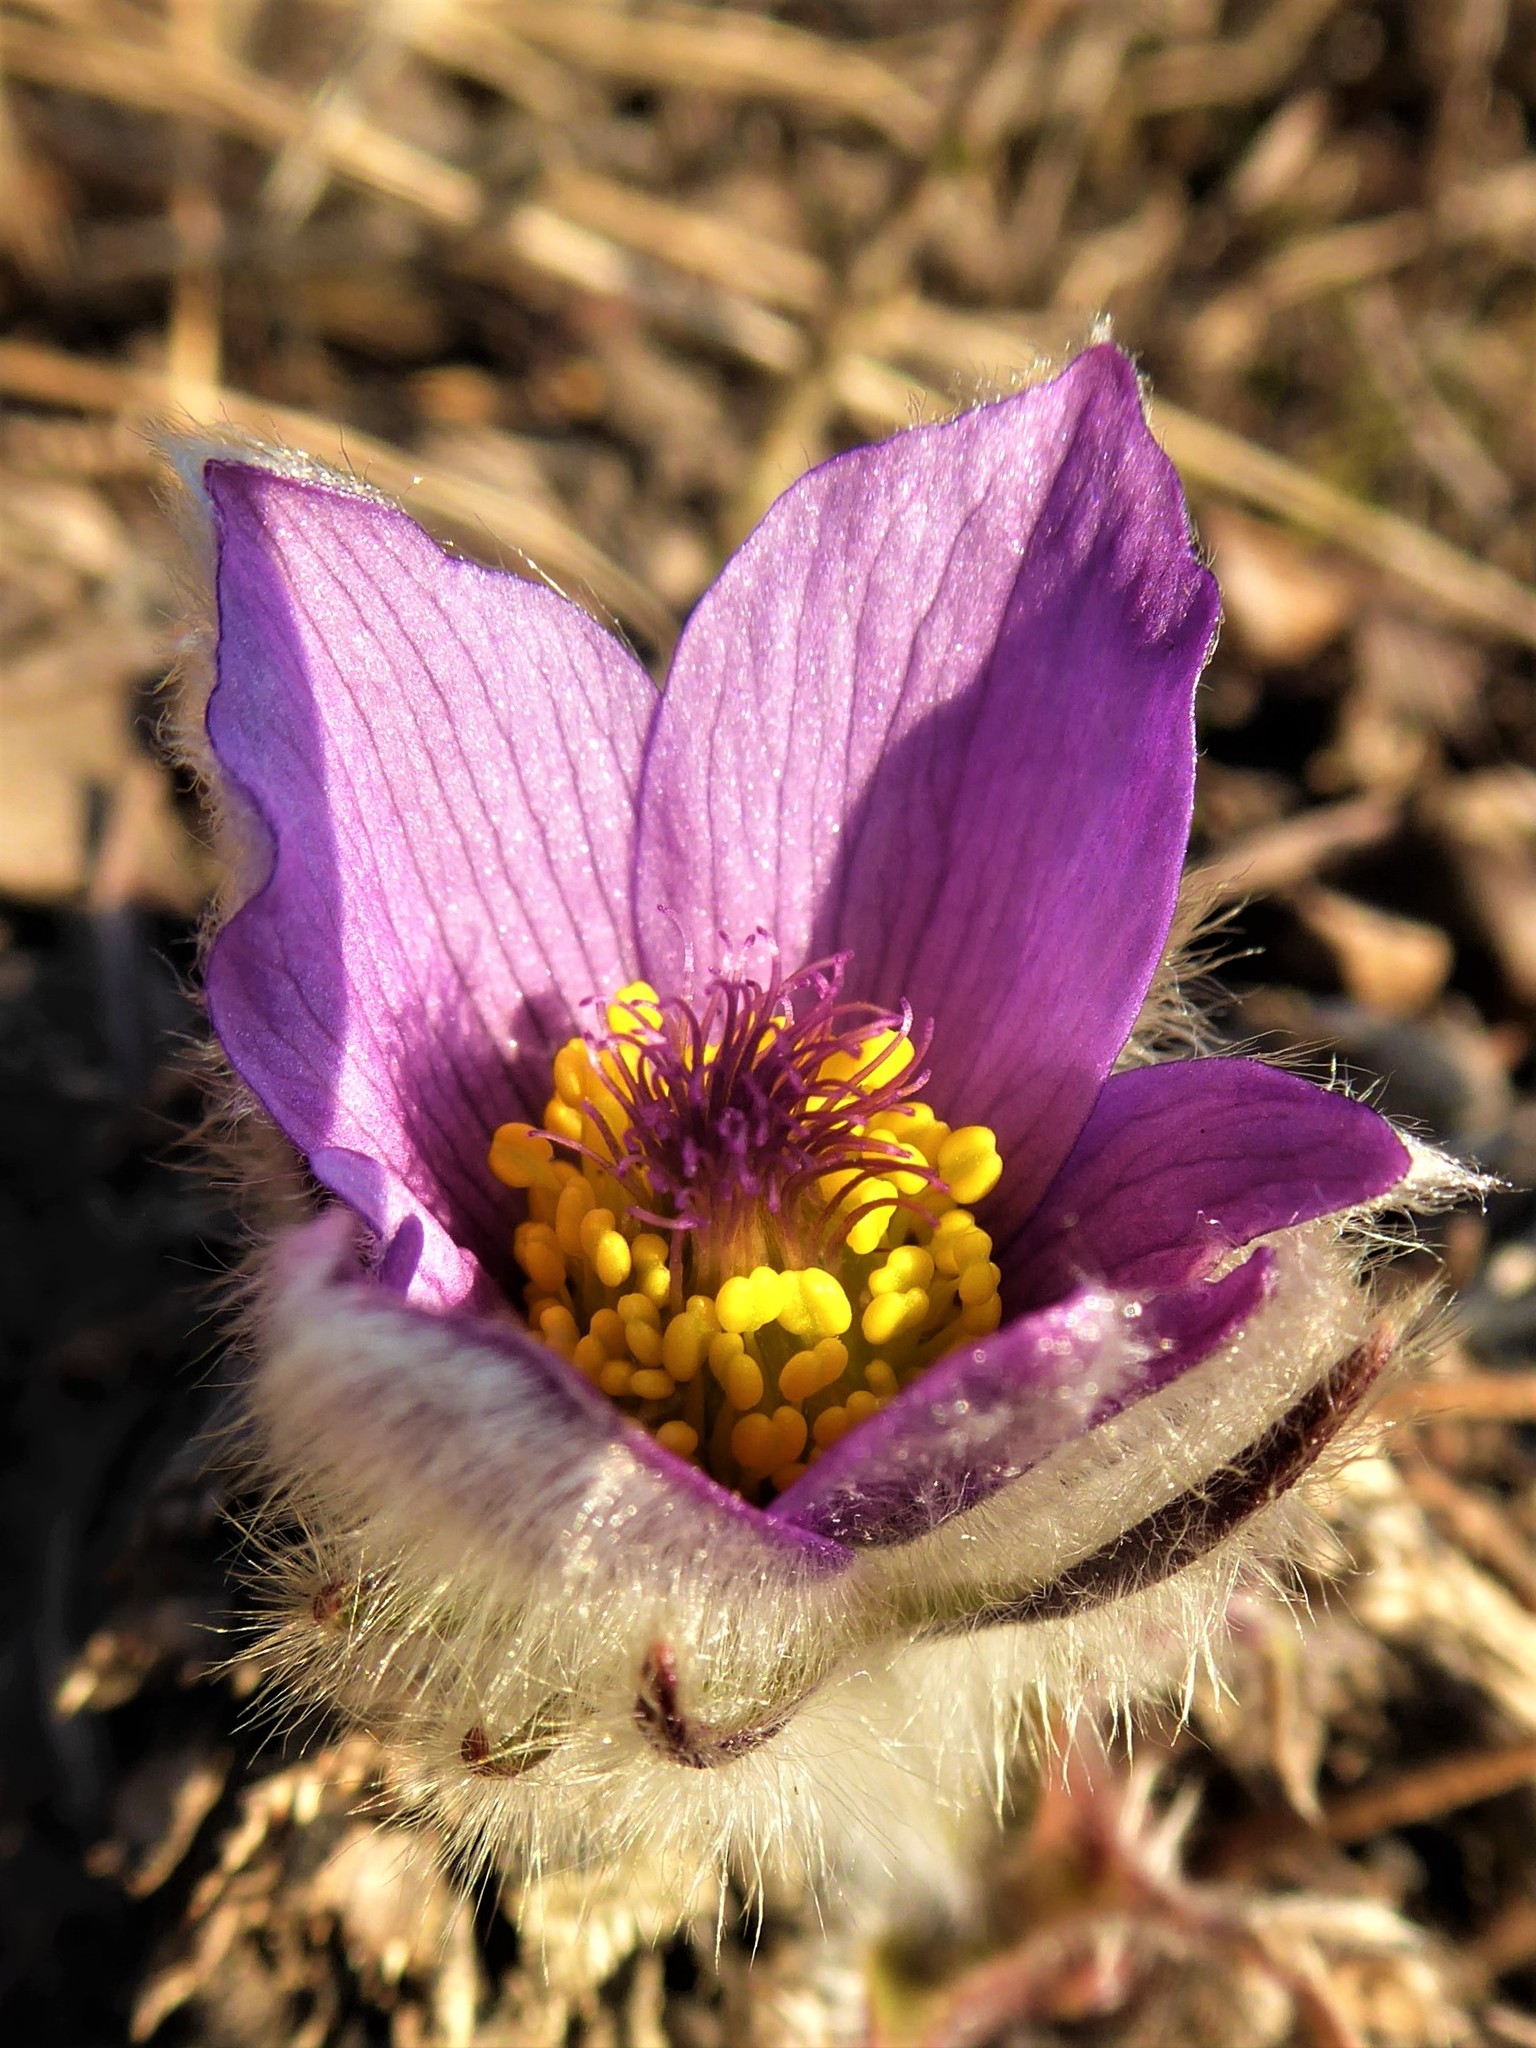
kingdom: Plantae
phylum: Tracheophyta
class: Magnoliopsida
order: Ranunculales
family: Ranunculaceae
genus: Pulsatilla
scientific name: Pulsatilla grandis
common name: Greater pasque flower
